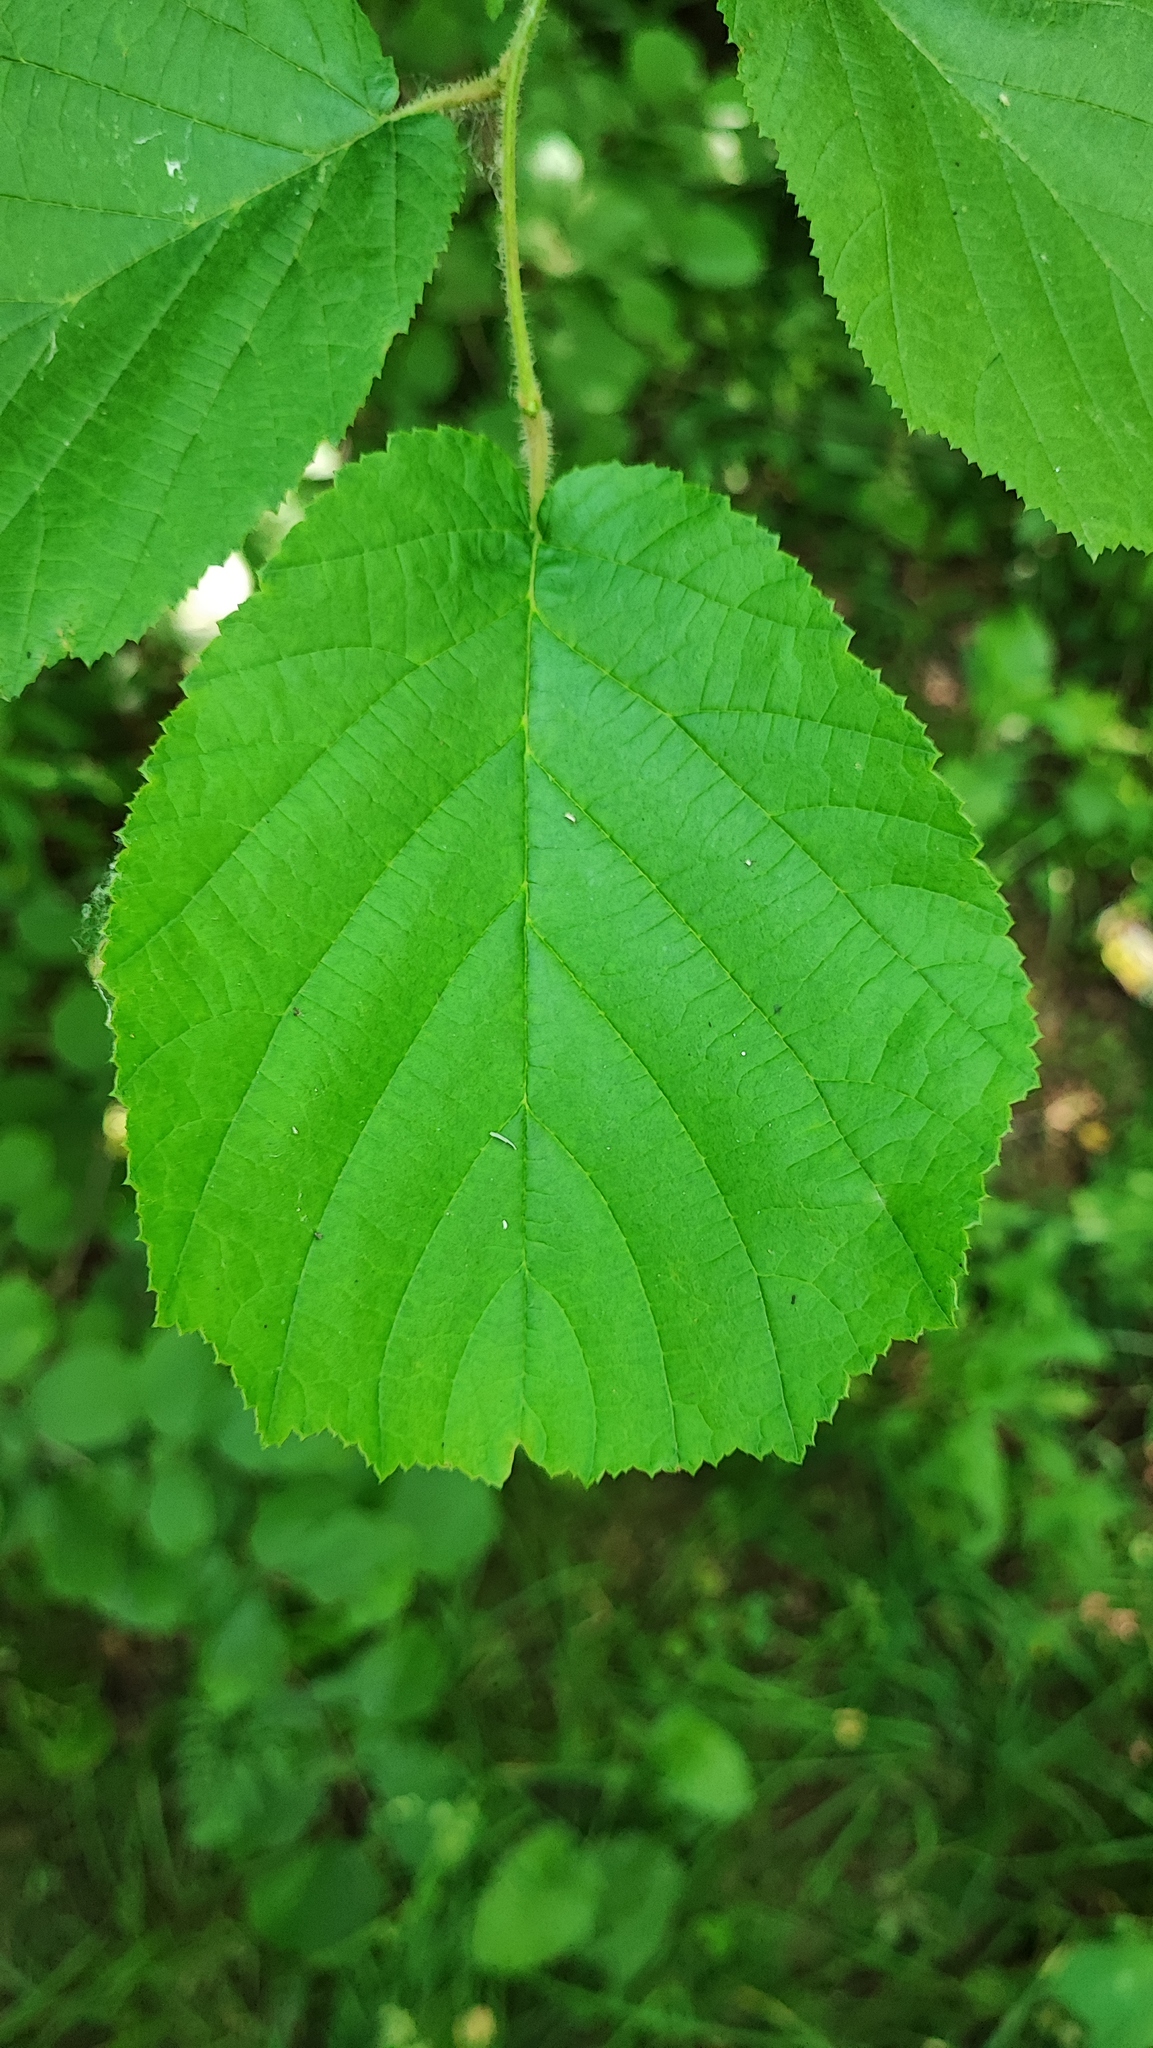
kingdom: Plantae
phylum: Tracheophyta
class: Magnoliopsida
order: Fagales
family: Betulaceae
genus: Corylus
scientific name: Corylus avellana
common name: European hazel
